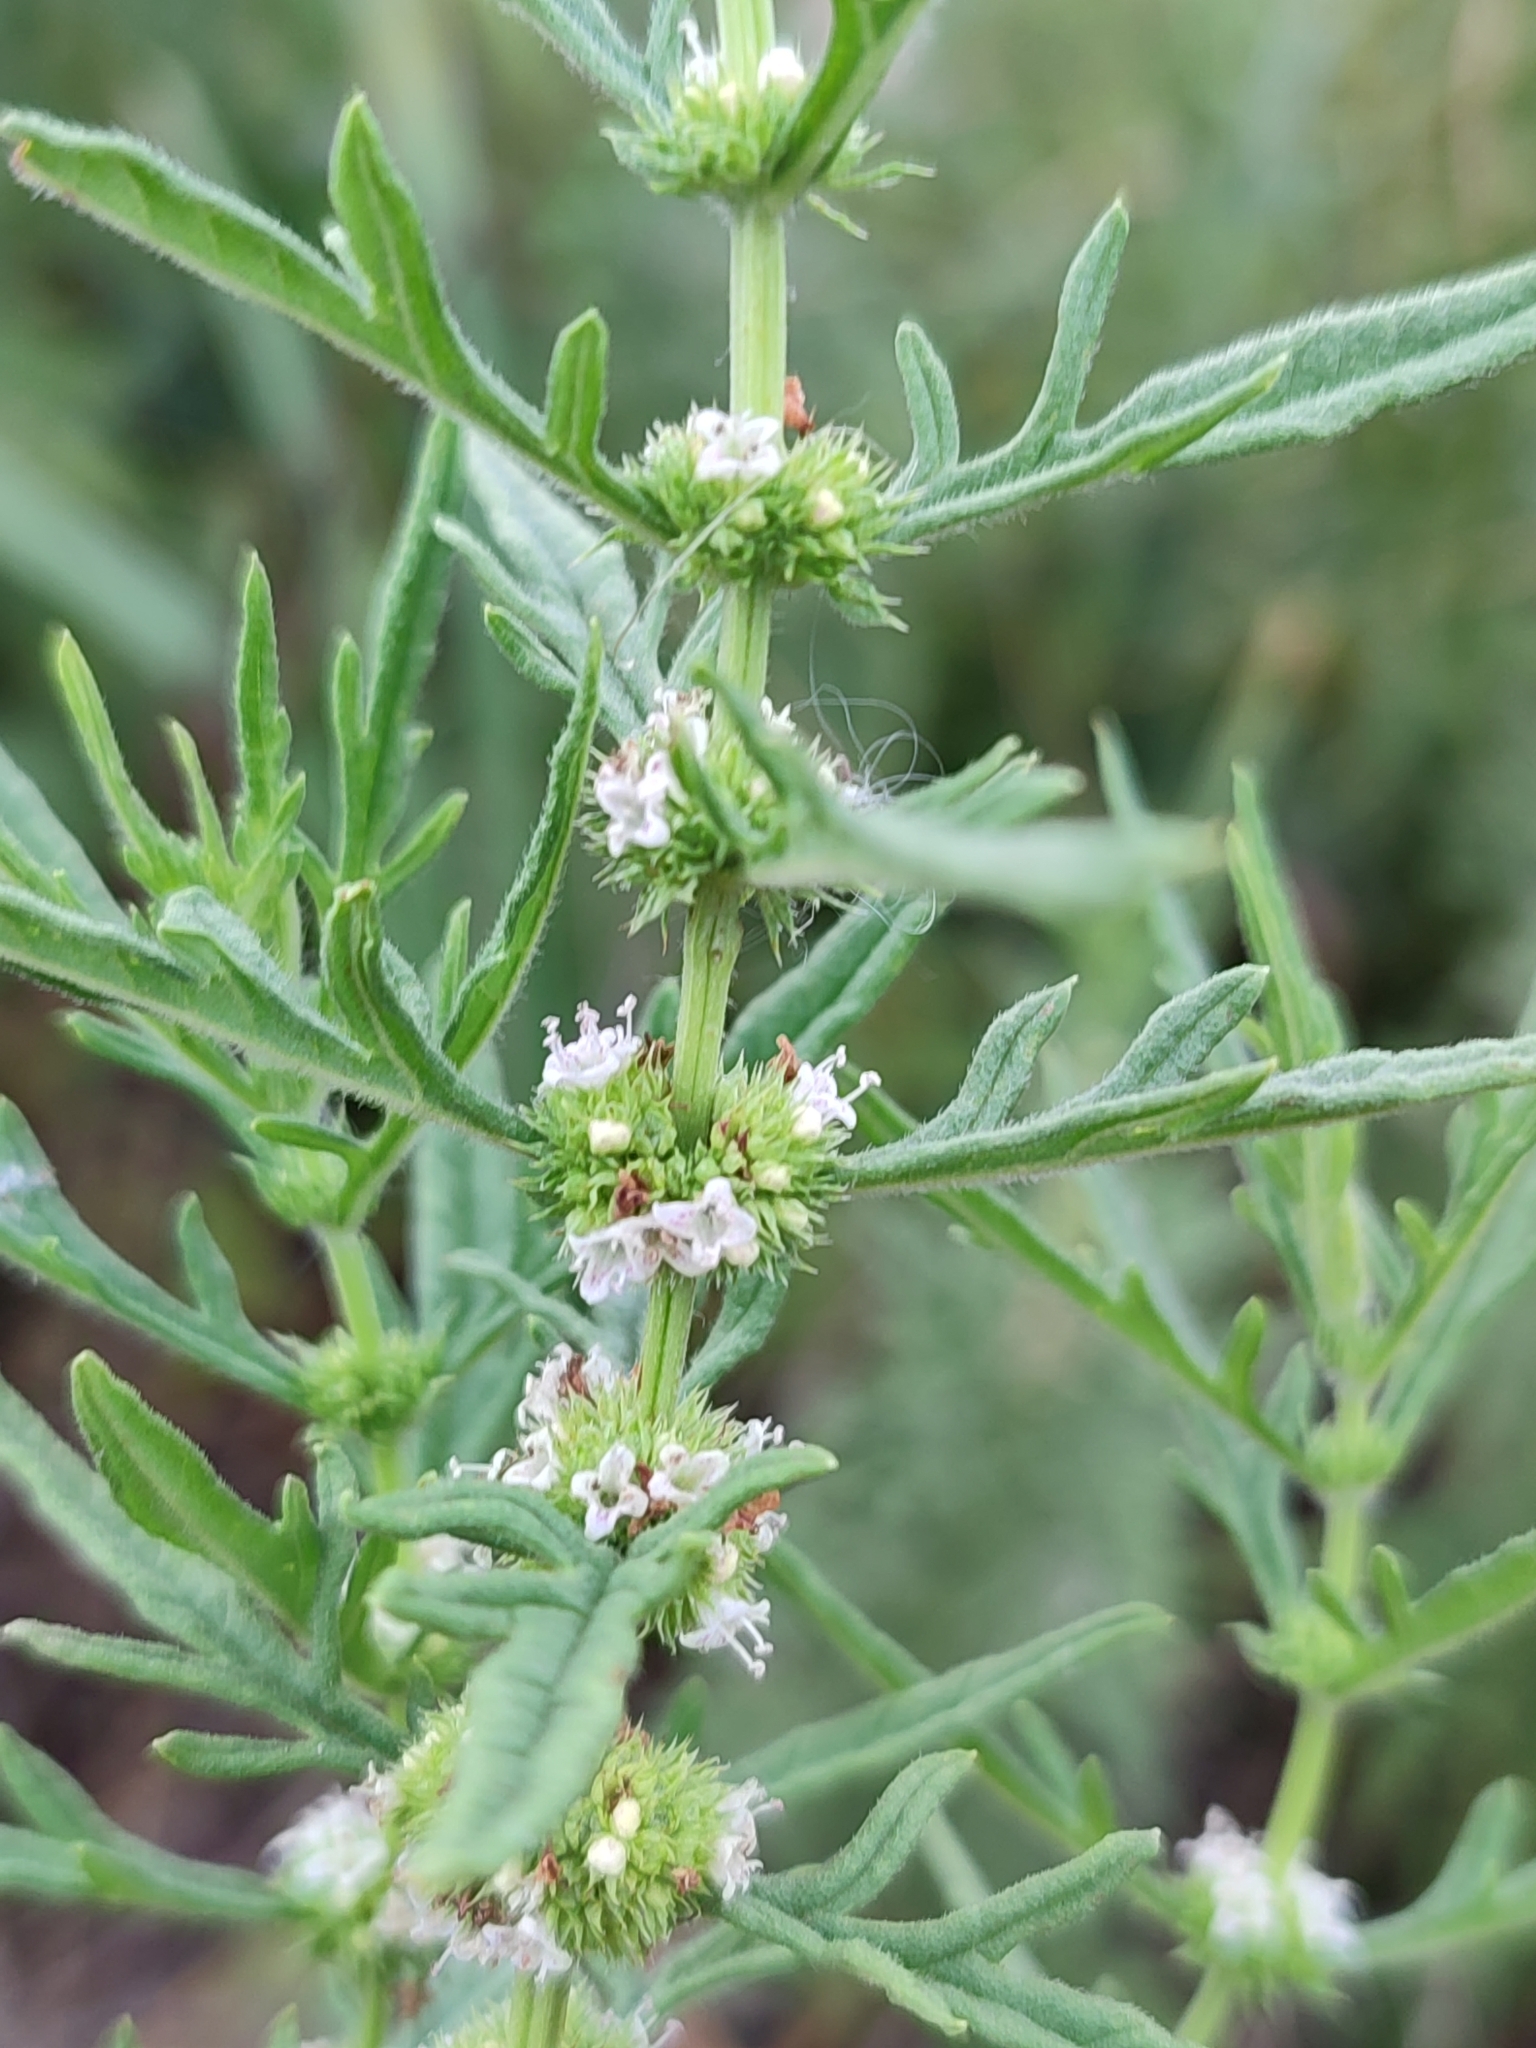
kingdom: Plantae
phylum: Tracheophyta
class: Magnoliopsida
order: Lamiales
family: Lamiaceae
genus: Lycopus
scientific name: Lycopus exaltatus
